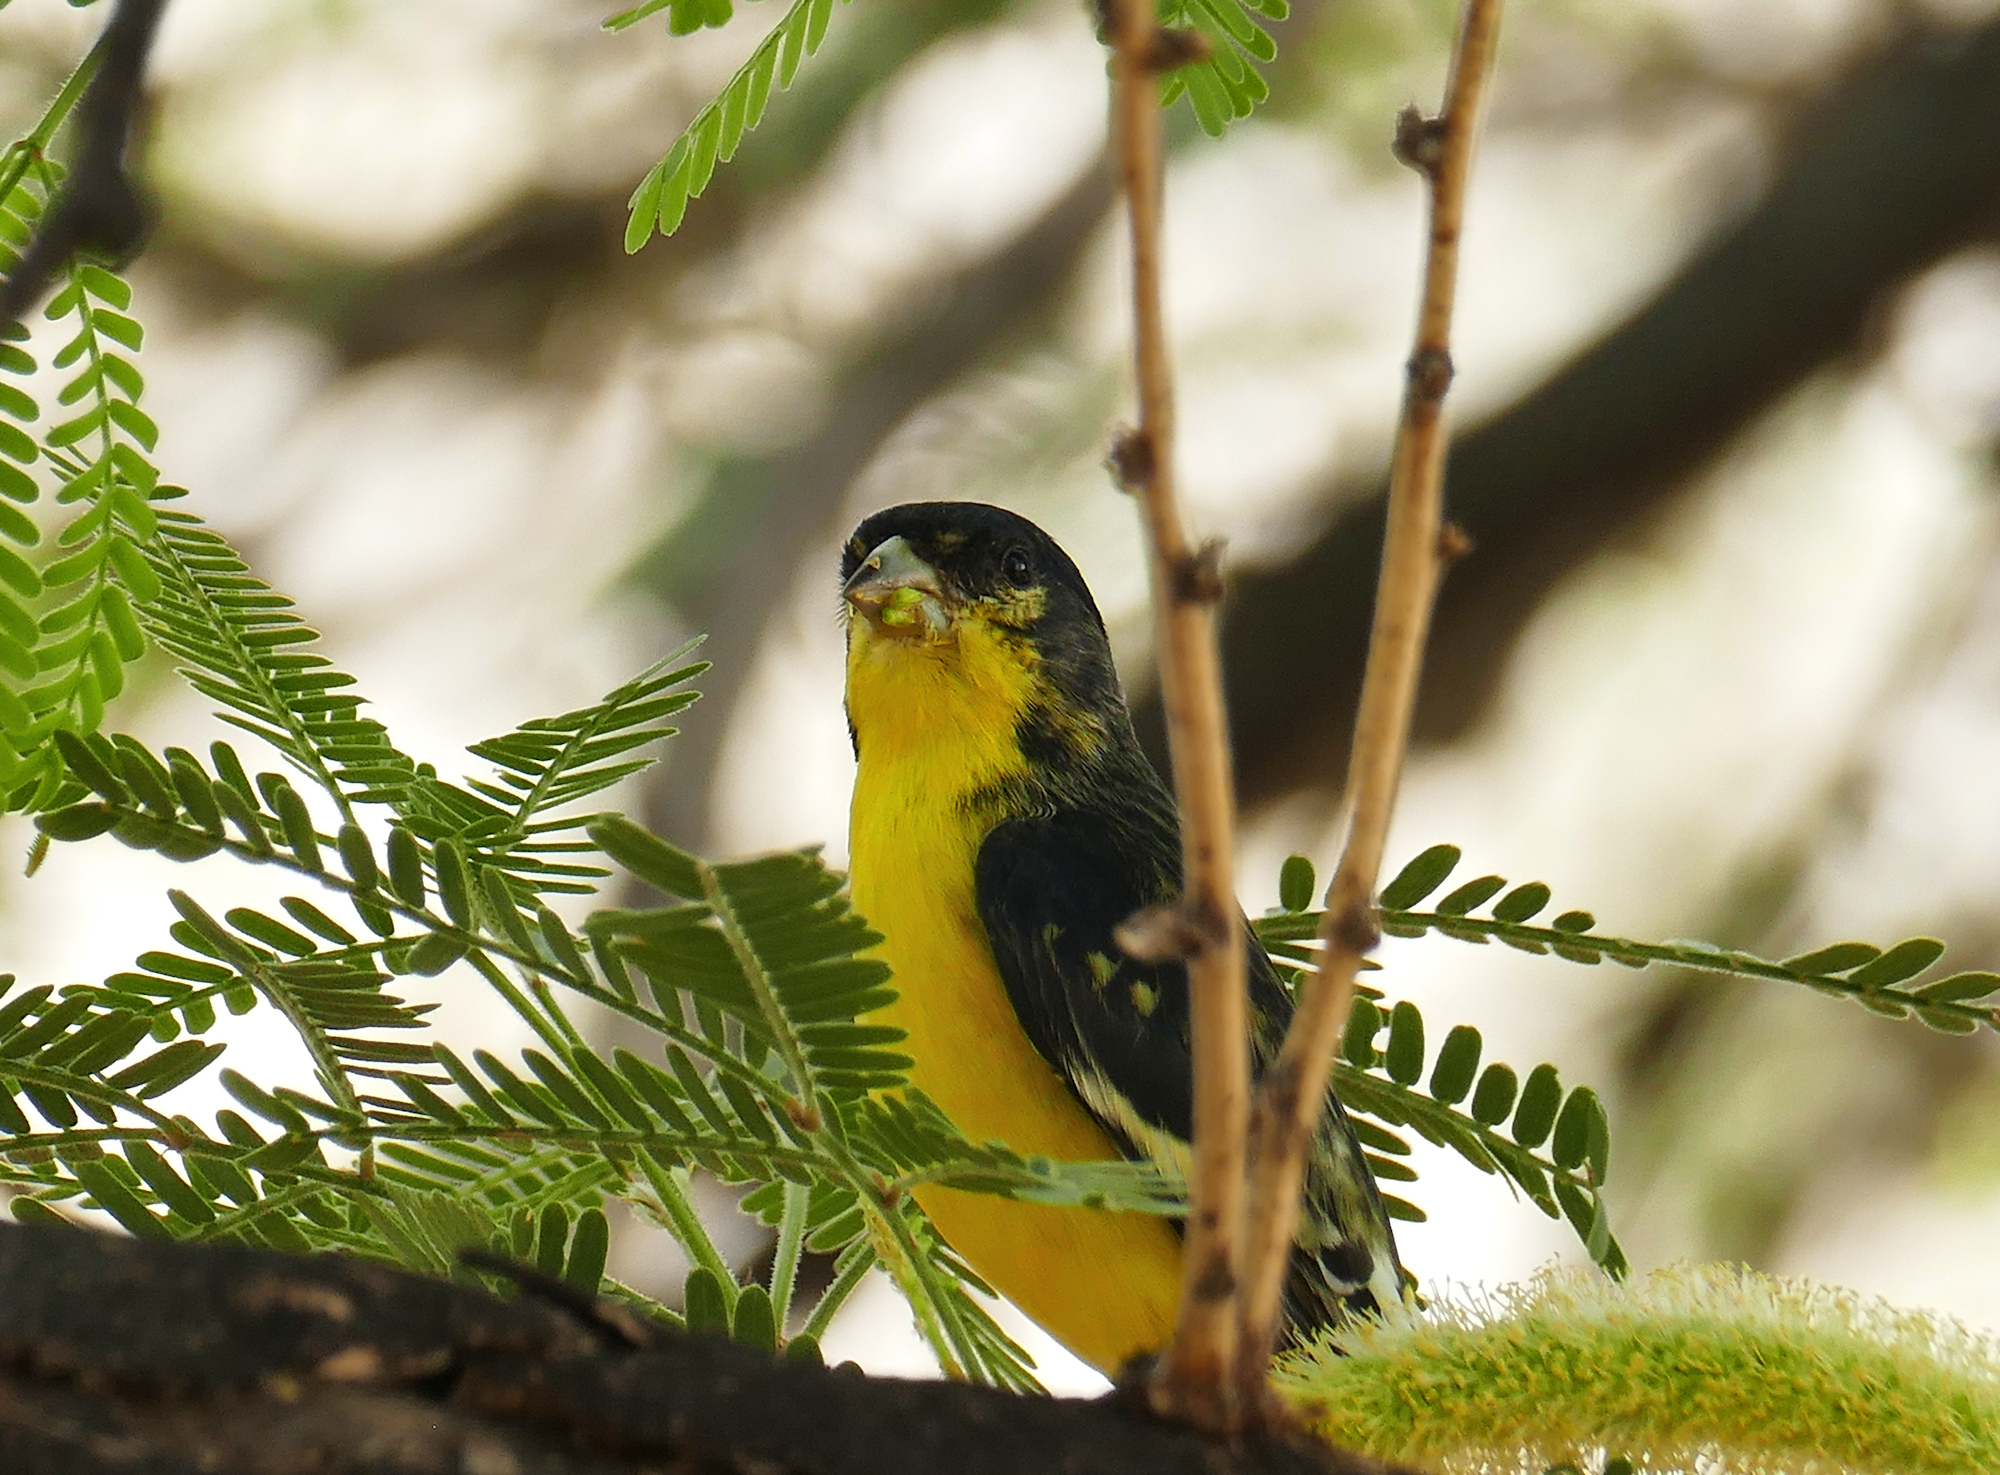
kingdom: Animalia
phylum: Chordata
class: Aves
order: Passeriformes
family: Fringillidae
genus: Spinus
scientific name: Spinus psaltria
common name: Lesser goldfinch
